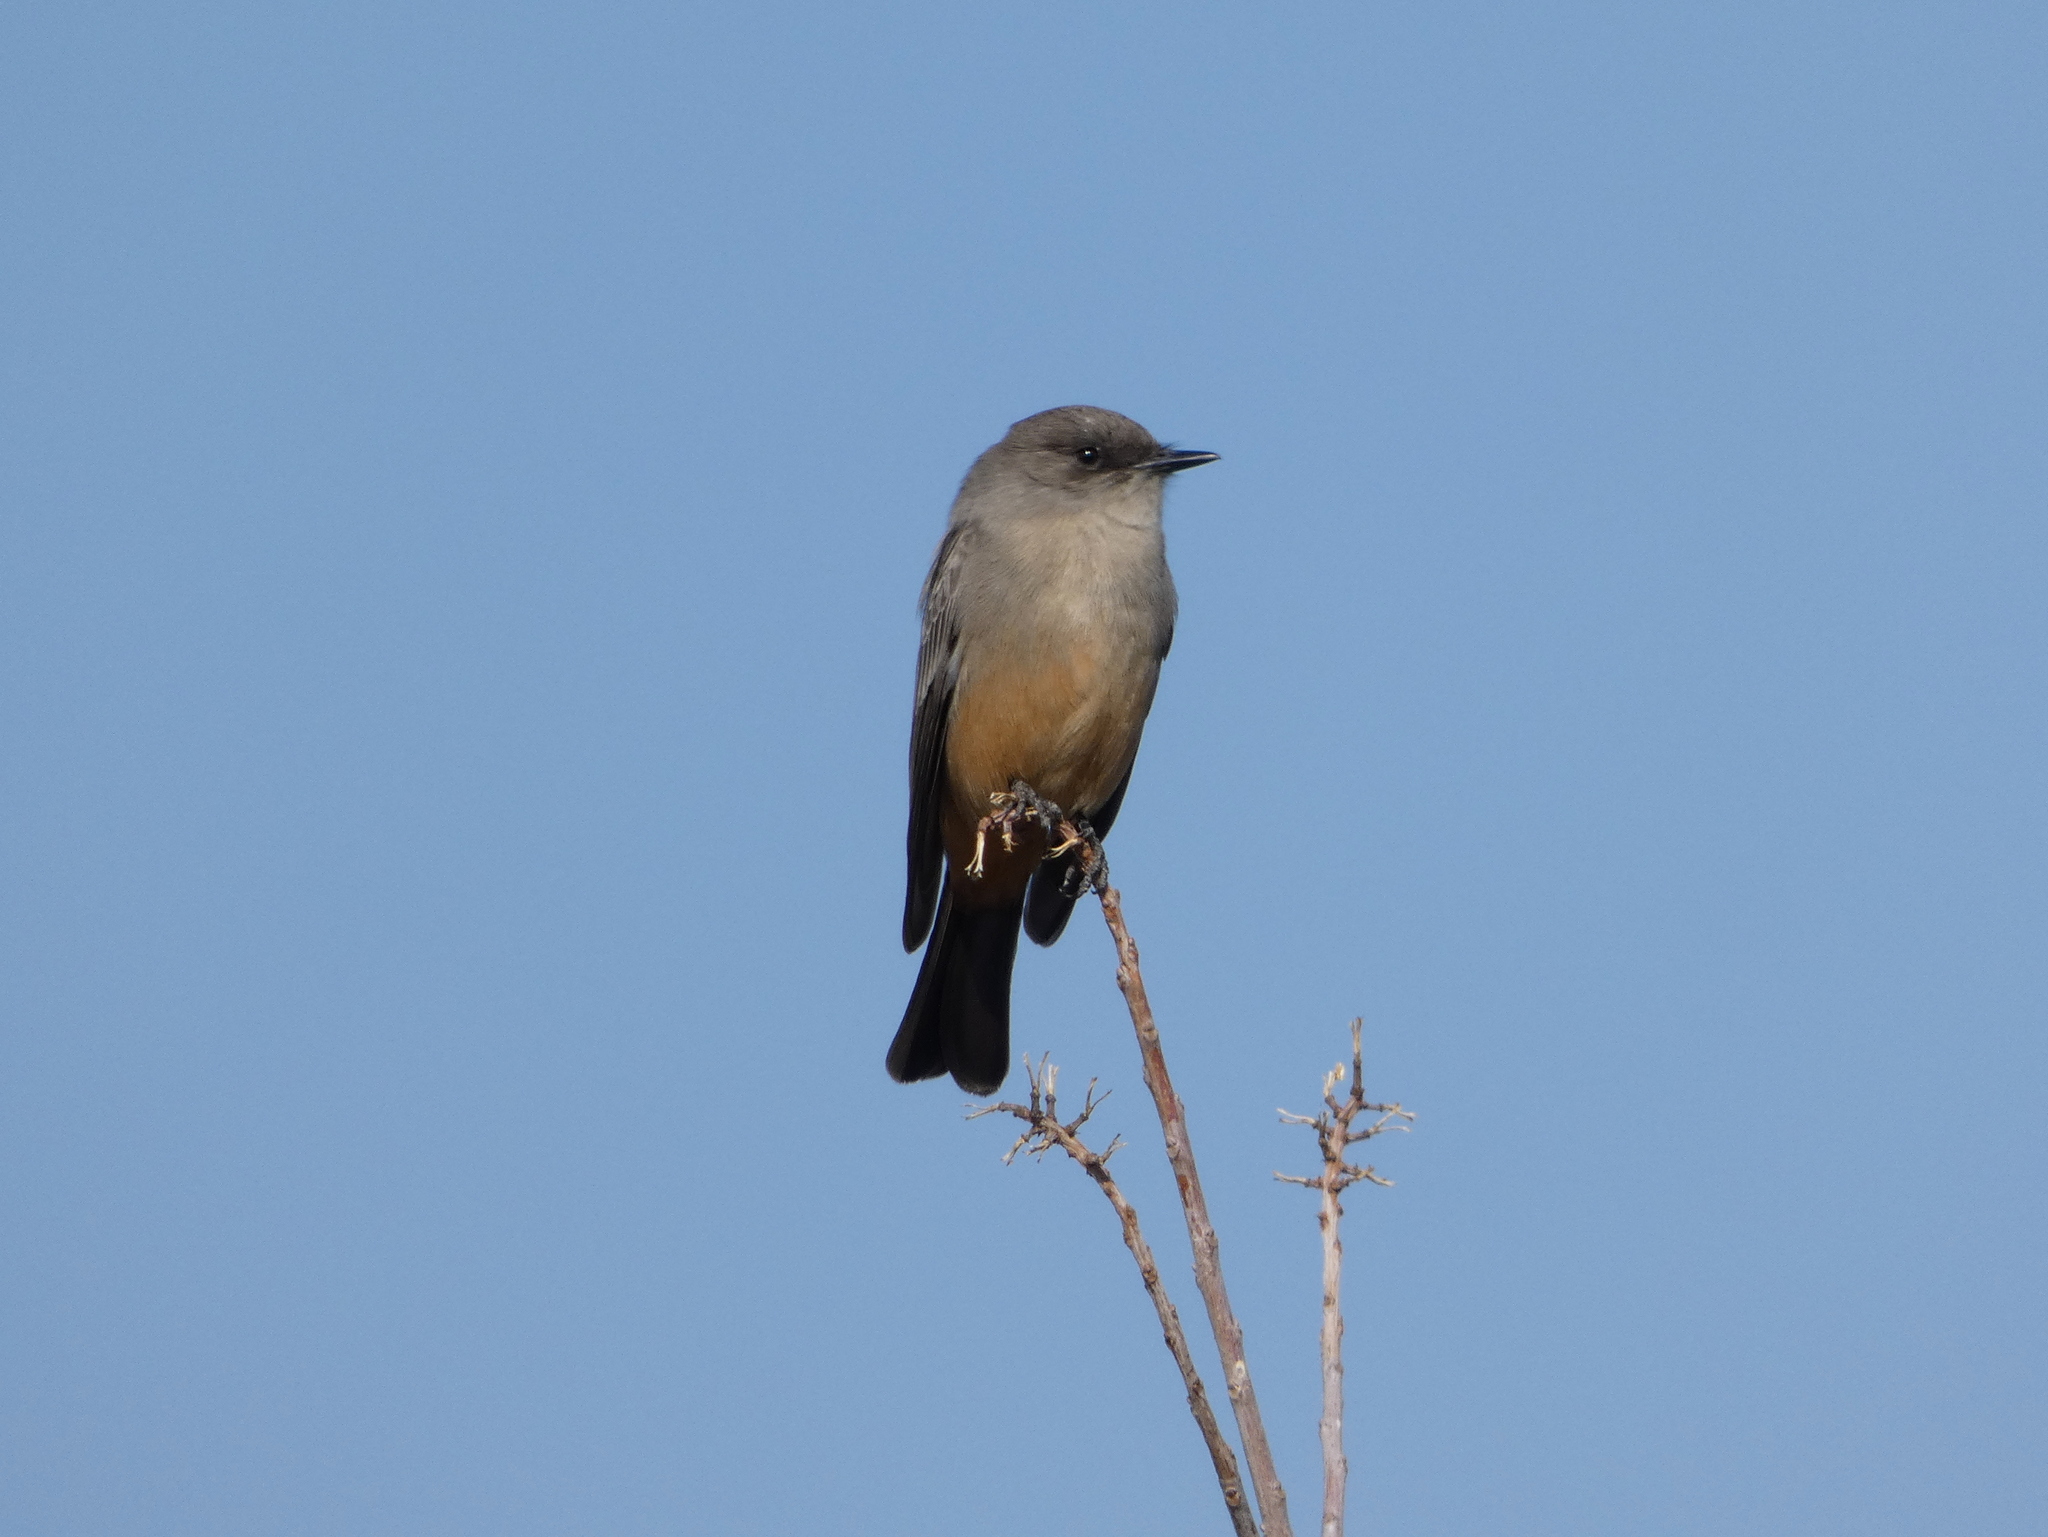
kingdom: Animalia
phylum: Chordata
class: Aves
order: Passeriformes
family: Tyrannidae
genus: Sayornis
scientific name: Sayornis saya
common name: Say's phoebe
